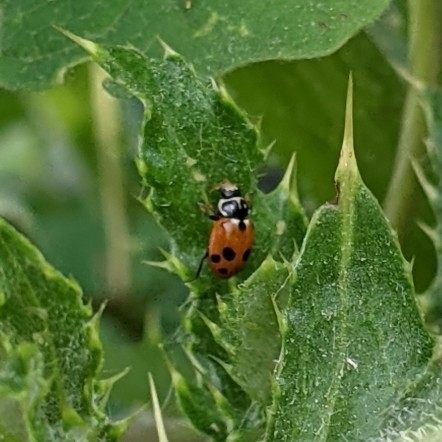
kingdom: Animalia
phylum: Arthropoda
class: Insecta
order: Coleoptera
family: Coccinellidae
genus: Hippodamia
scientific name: Hippodamia variegata
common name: Ladybird beetle
